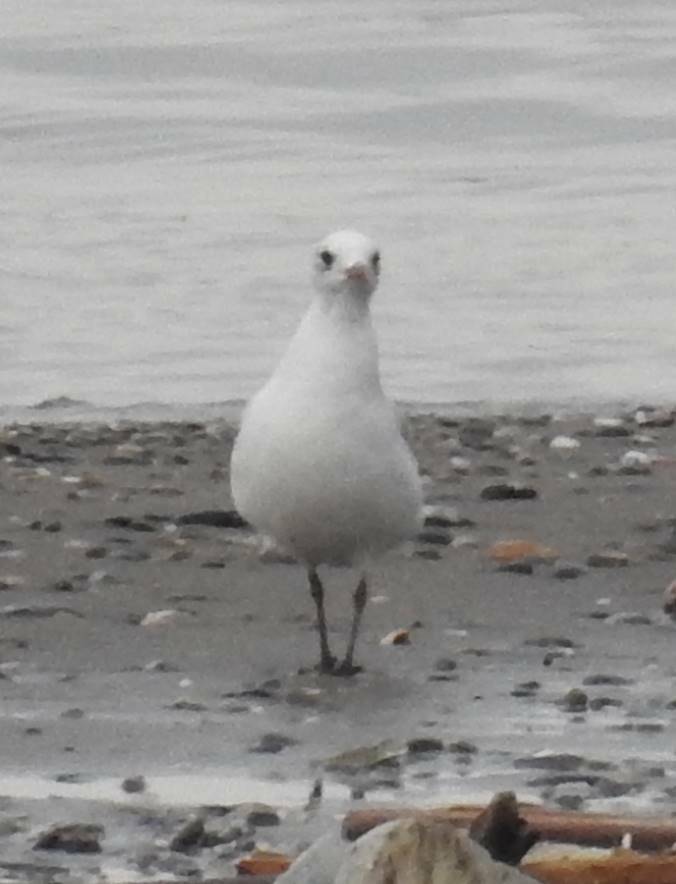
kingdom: Animalia
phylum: Chordata
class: Aves
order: Charadriiformes
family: Laridae
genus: Ichthyaetus
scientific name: Ichthyaetus melanocephalus
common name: Mediterranean gull
